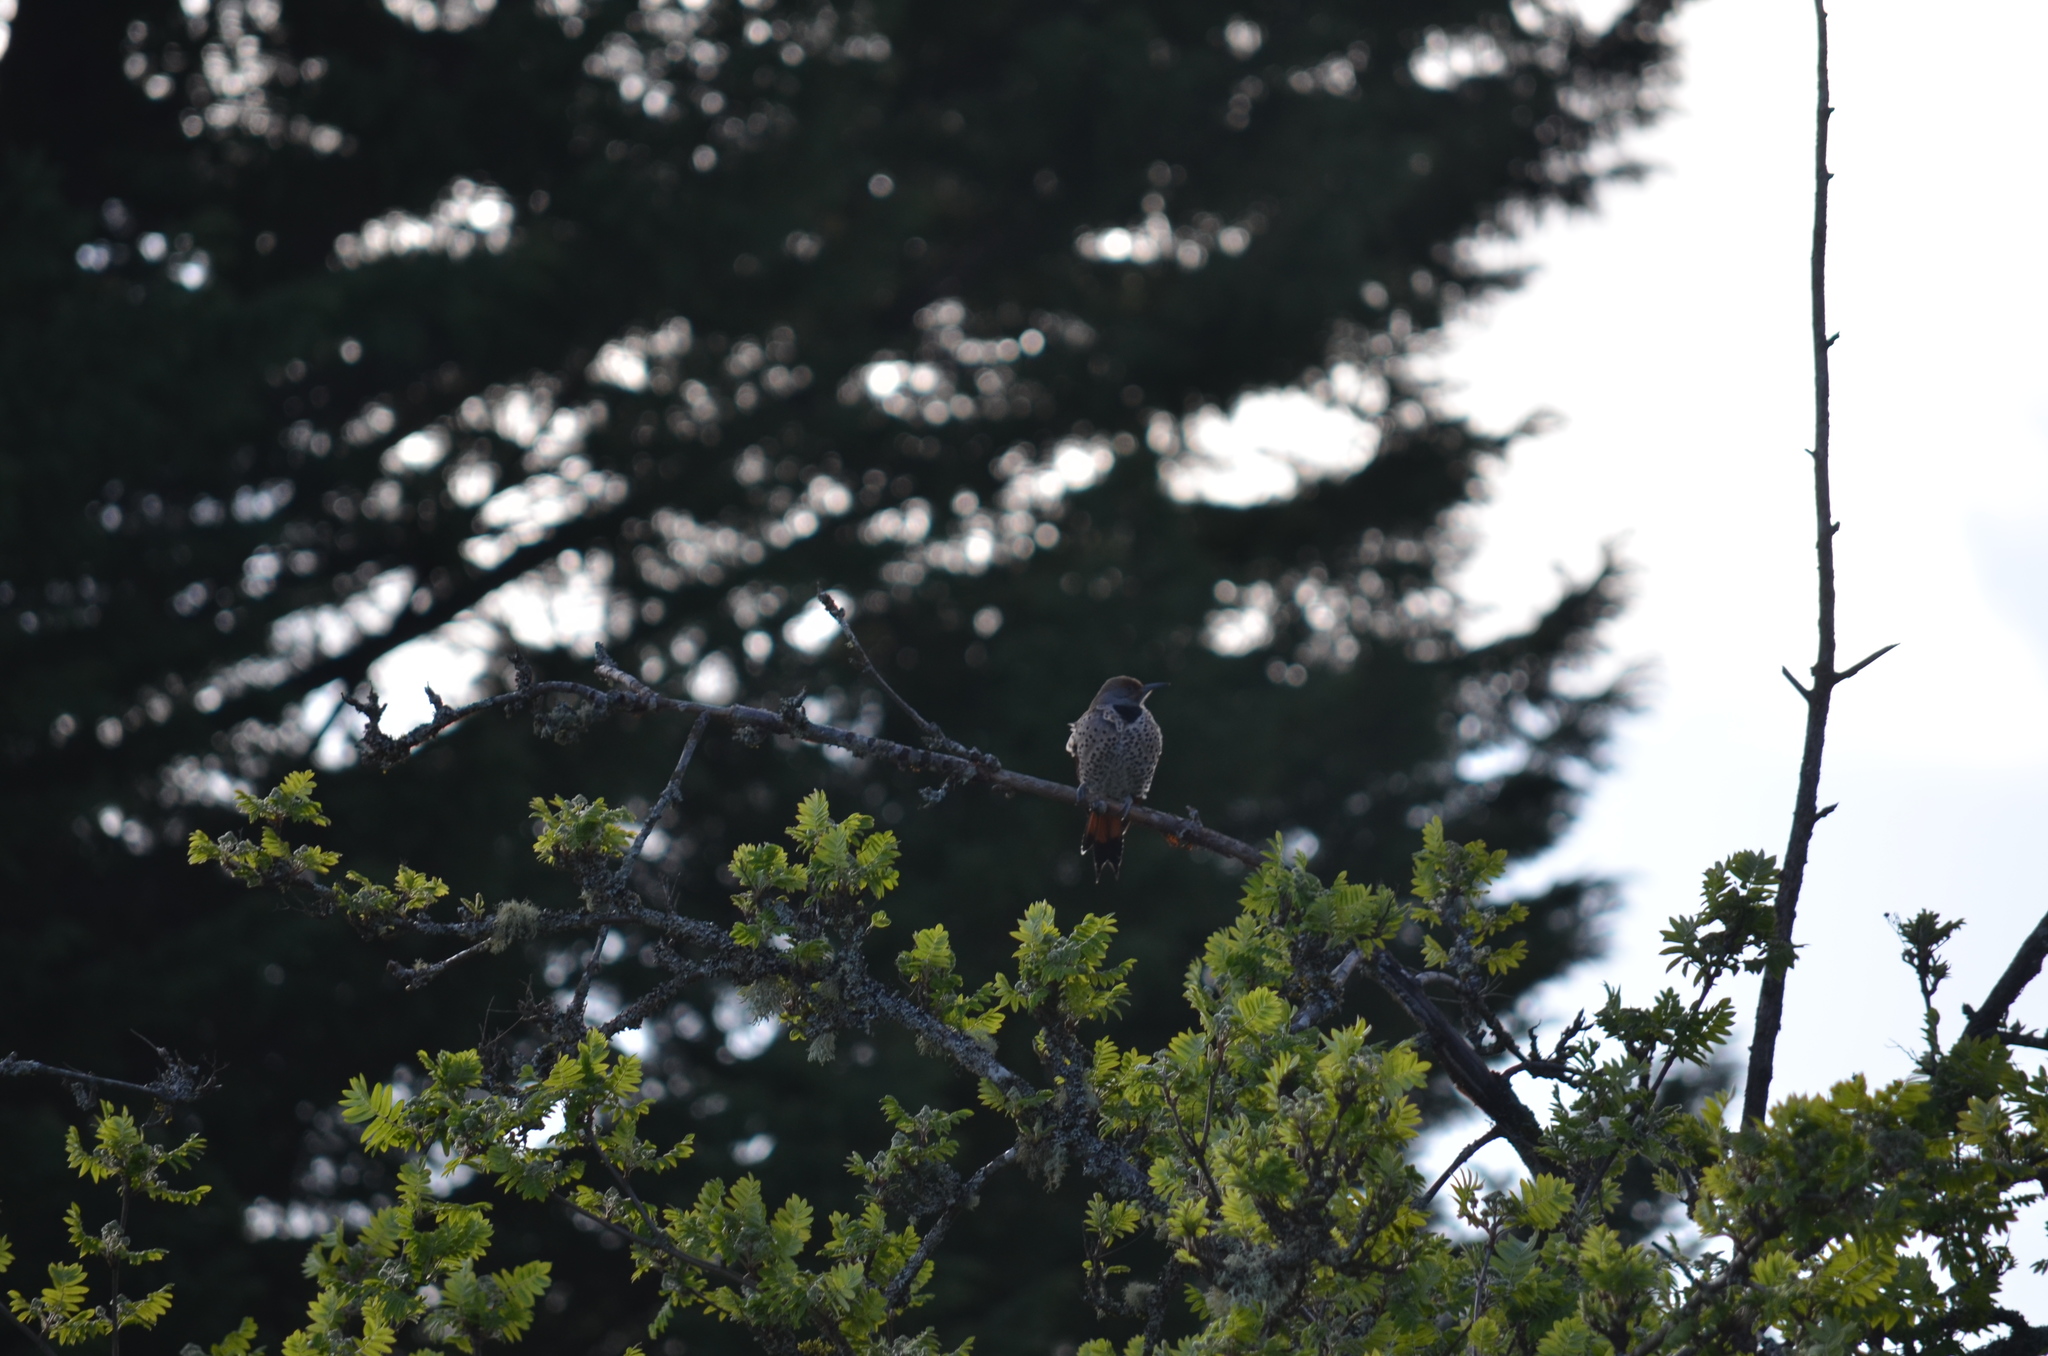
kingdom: Animalia
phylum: Chordata
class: Aves
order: Piciformes
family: Picidae
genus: Colaptes
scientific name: Colaptes auratus
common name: Northern flicker
